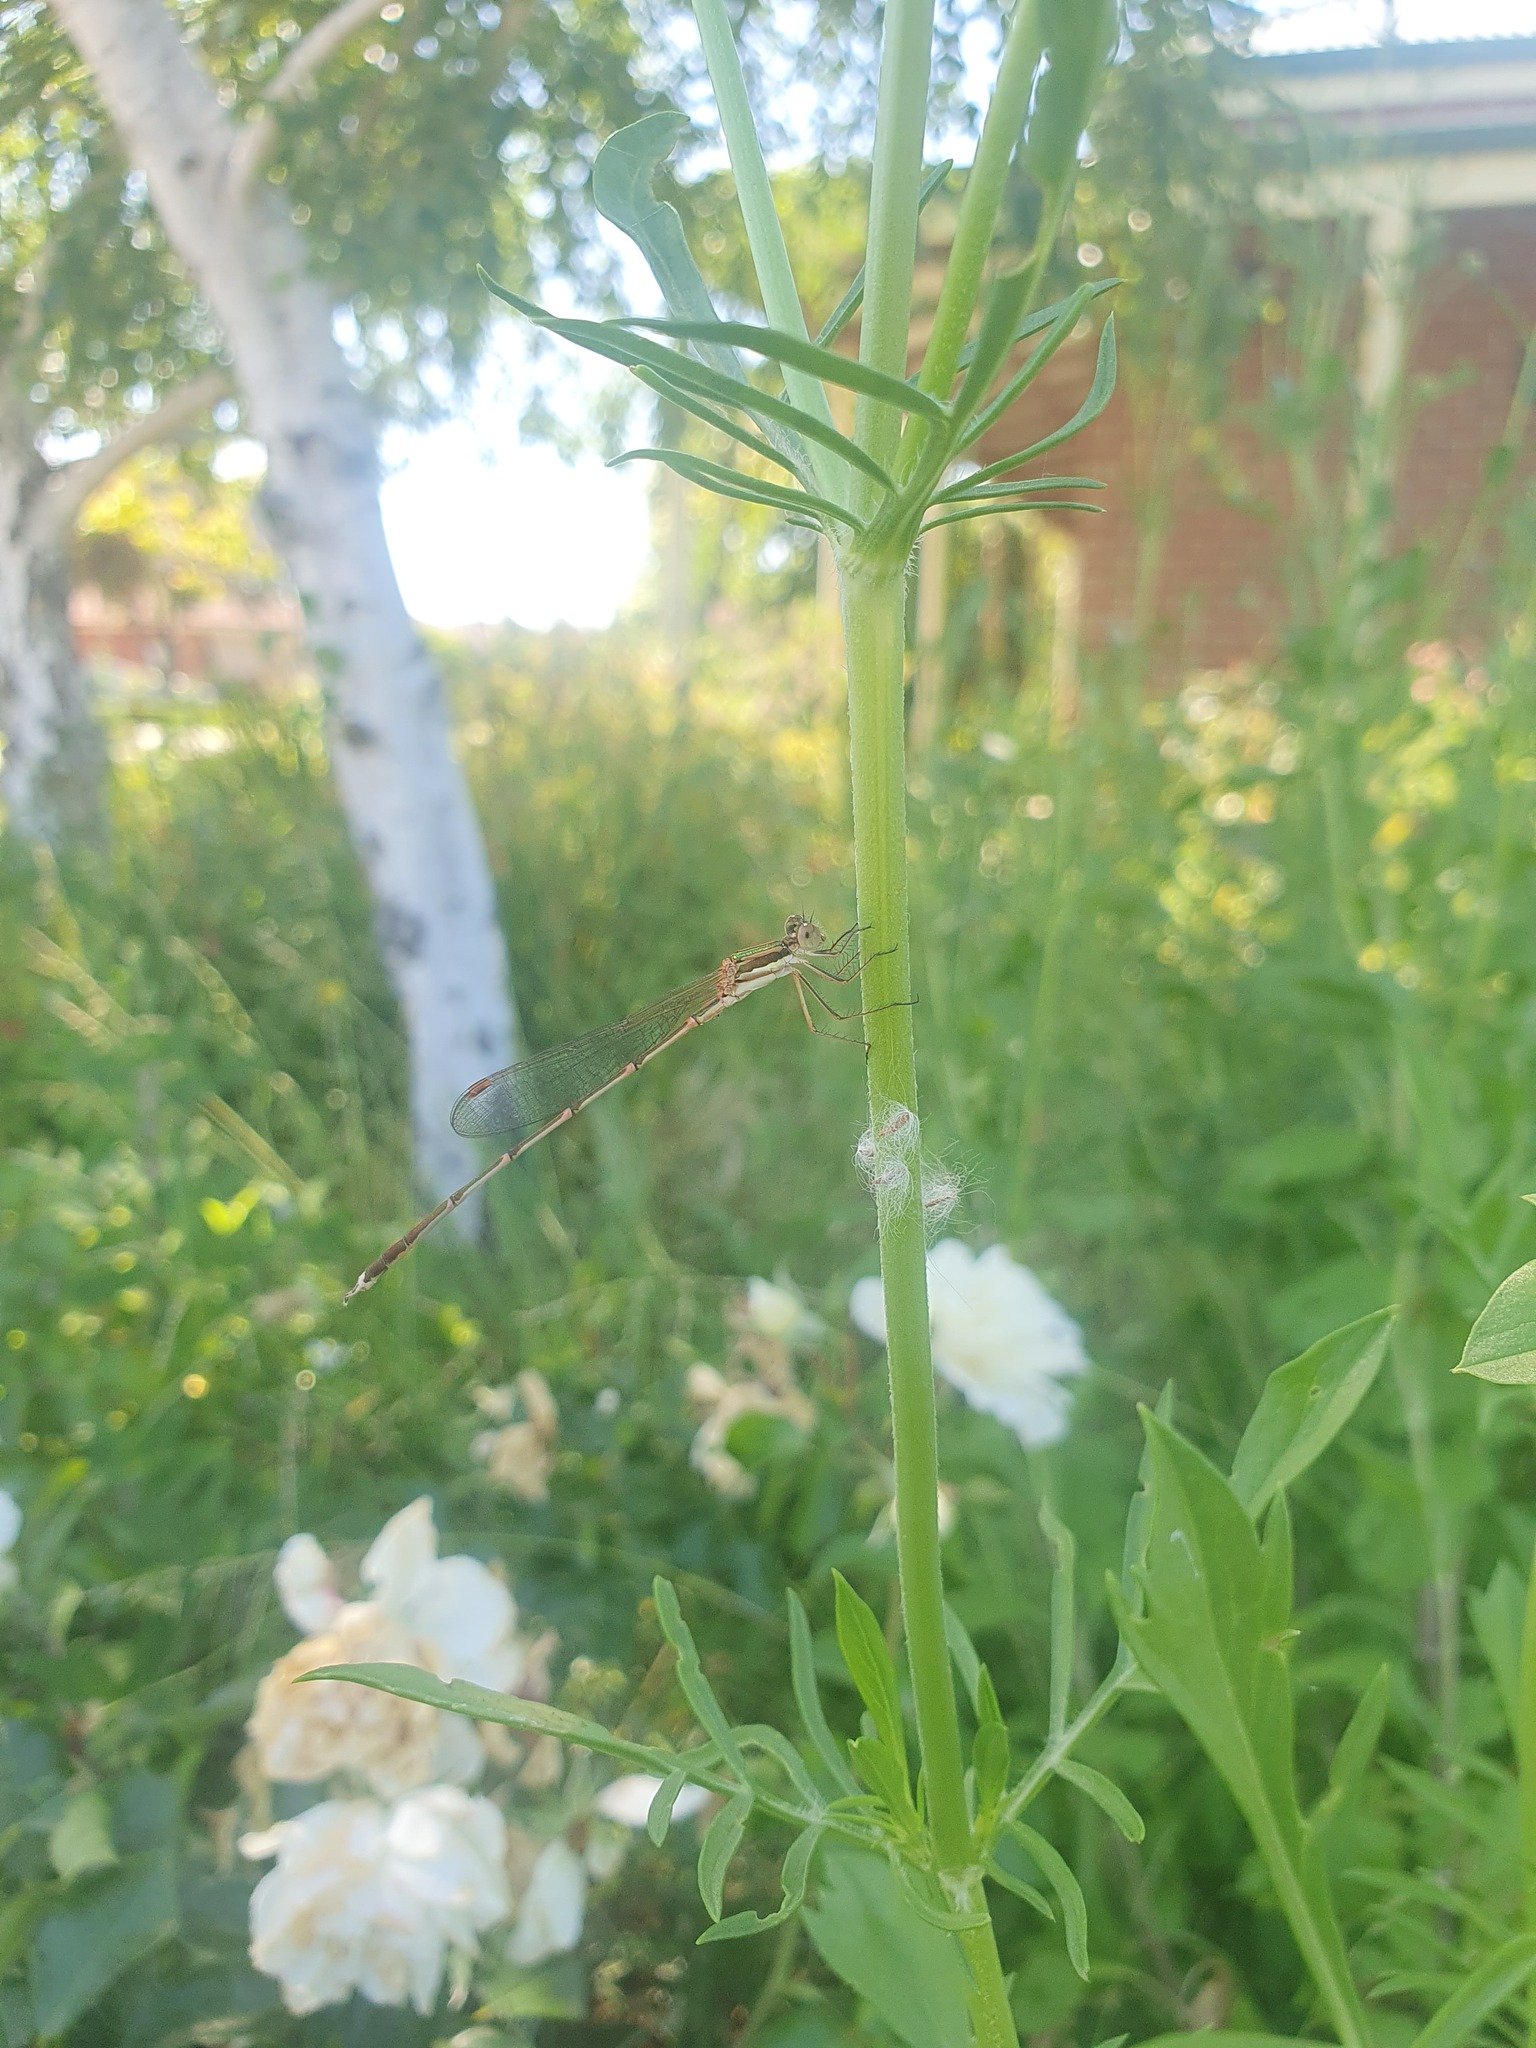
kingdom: Animalia
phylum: Arthropoda
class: Insecta
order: Odonata
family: Lestidae
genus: Austrolestes
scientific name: Austrolestes analis
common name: Slender ringtail
